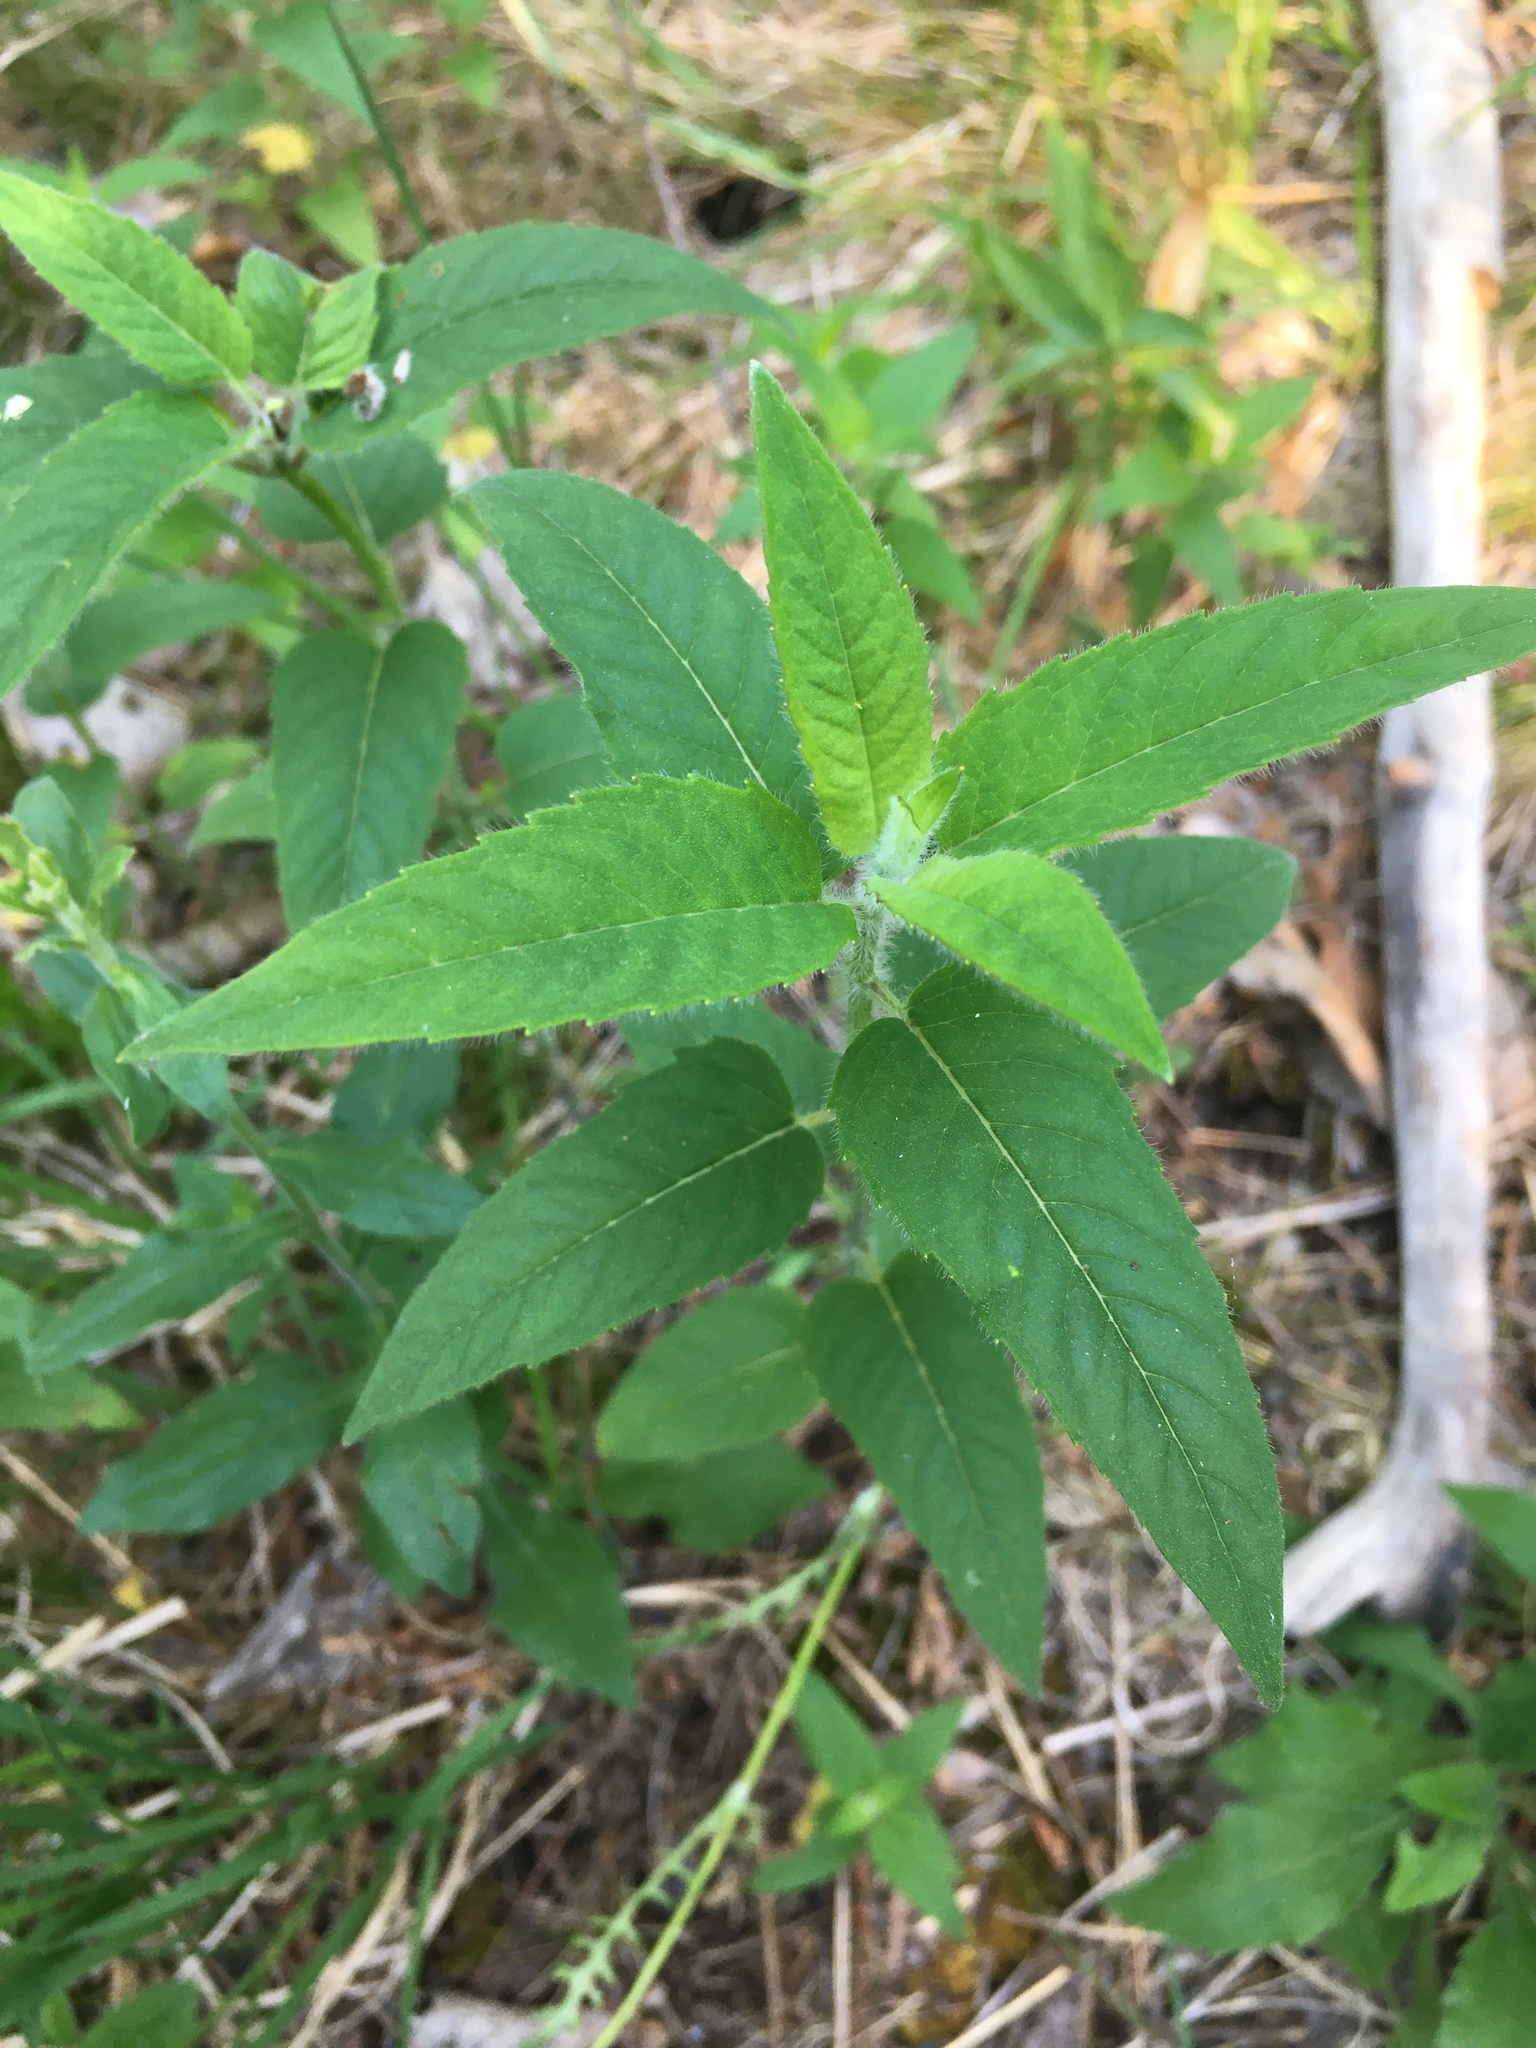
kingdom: Plantae
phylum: Tracheophyta
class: Magnoliopsida
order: Lamiales
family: Lamiaceae
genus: Monarda
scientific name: Monarda fistulosa
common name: Purple beebalm
